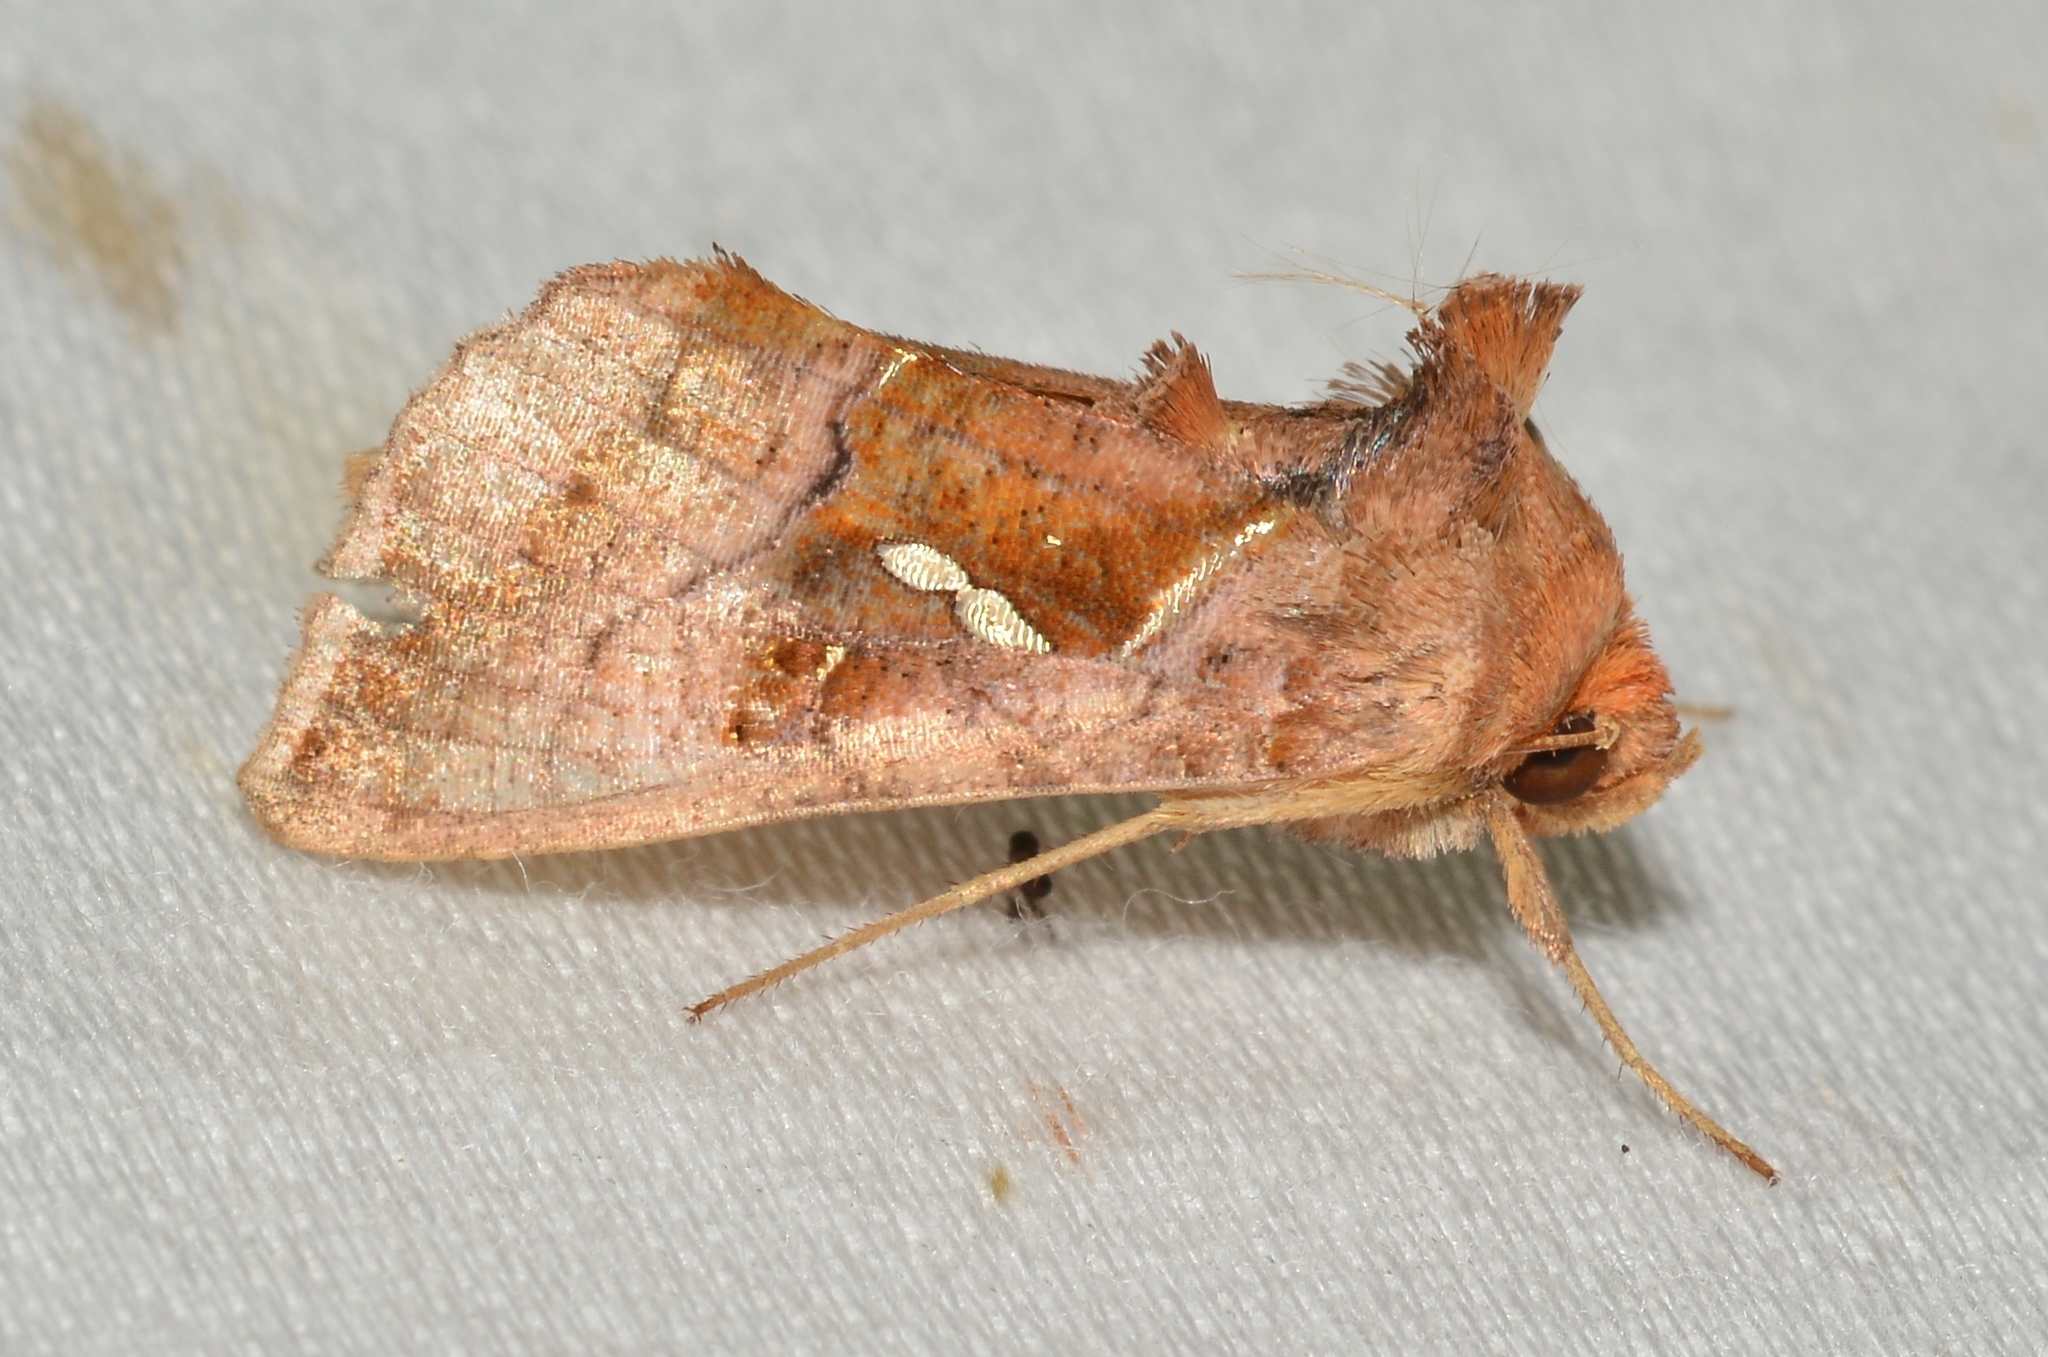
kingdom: Animalia
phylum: Arthropoda
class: Insecta
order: Lepidoptera
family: Noctuidae
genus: Enigmogramma
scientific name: Enigmogramma basigera
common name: Pink-washed looper moth
